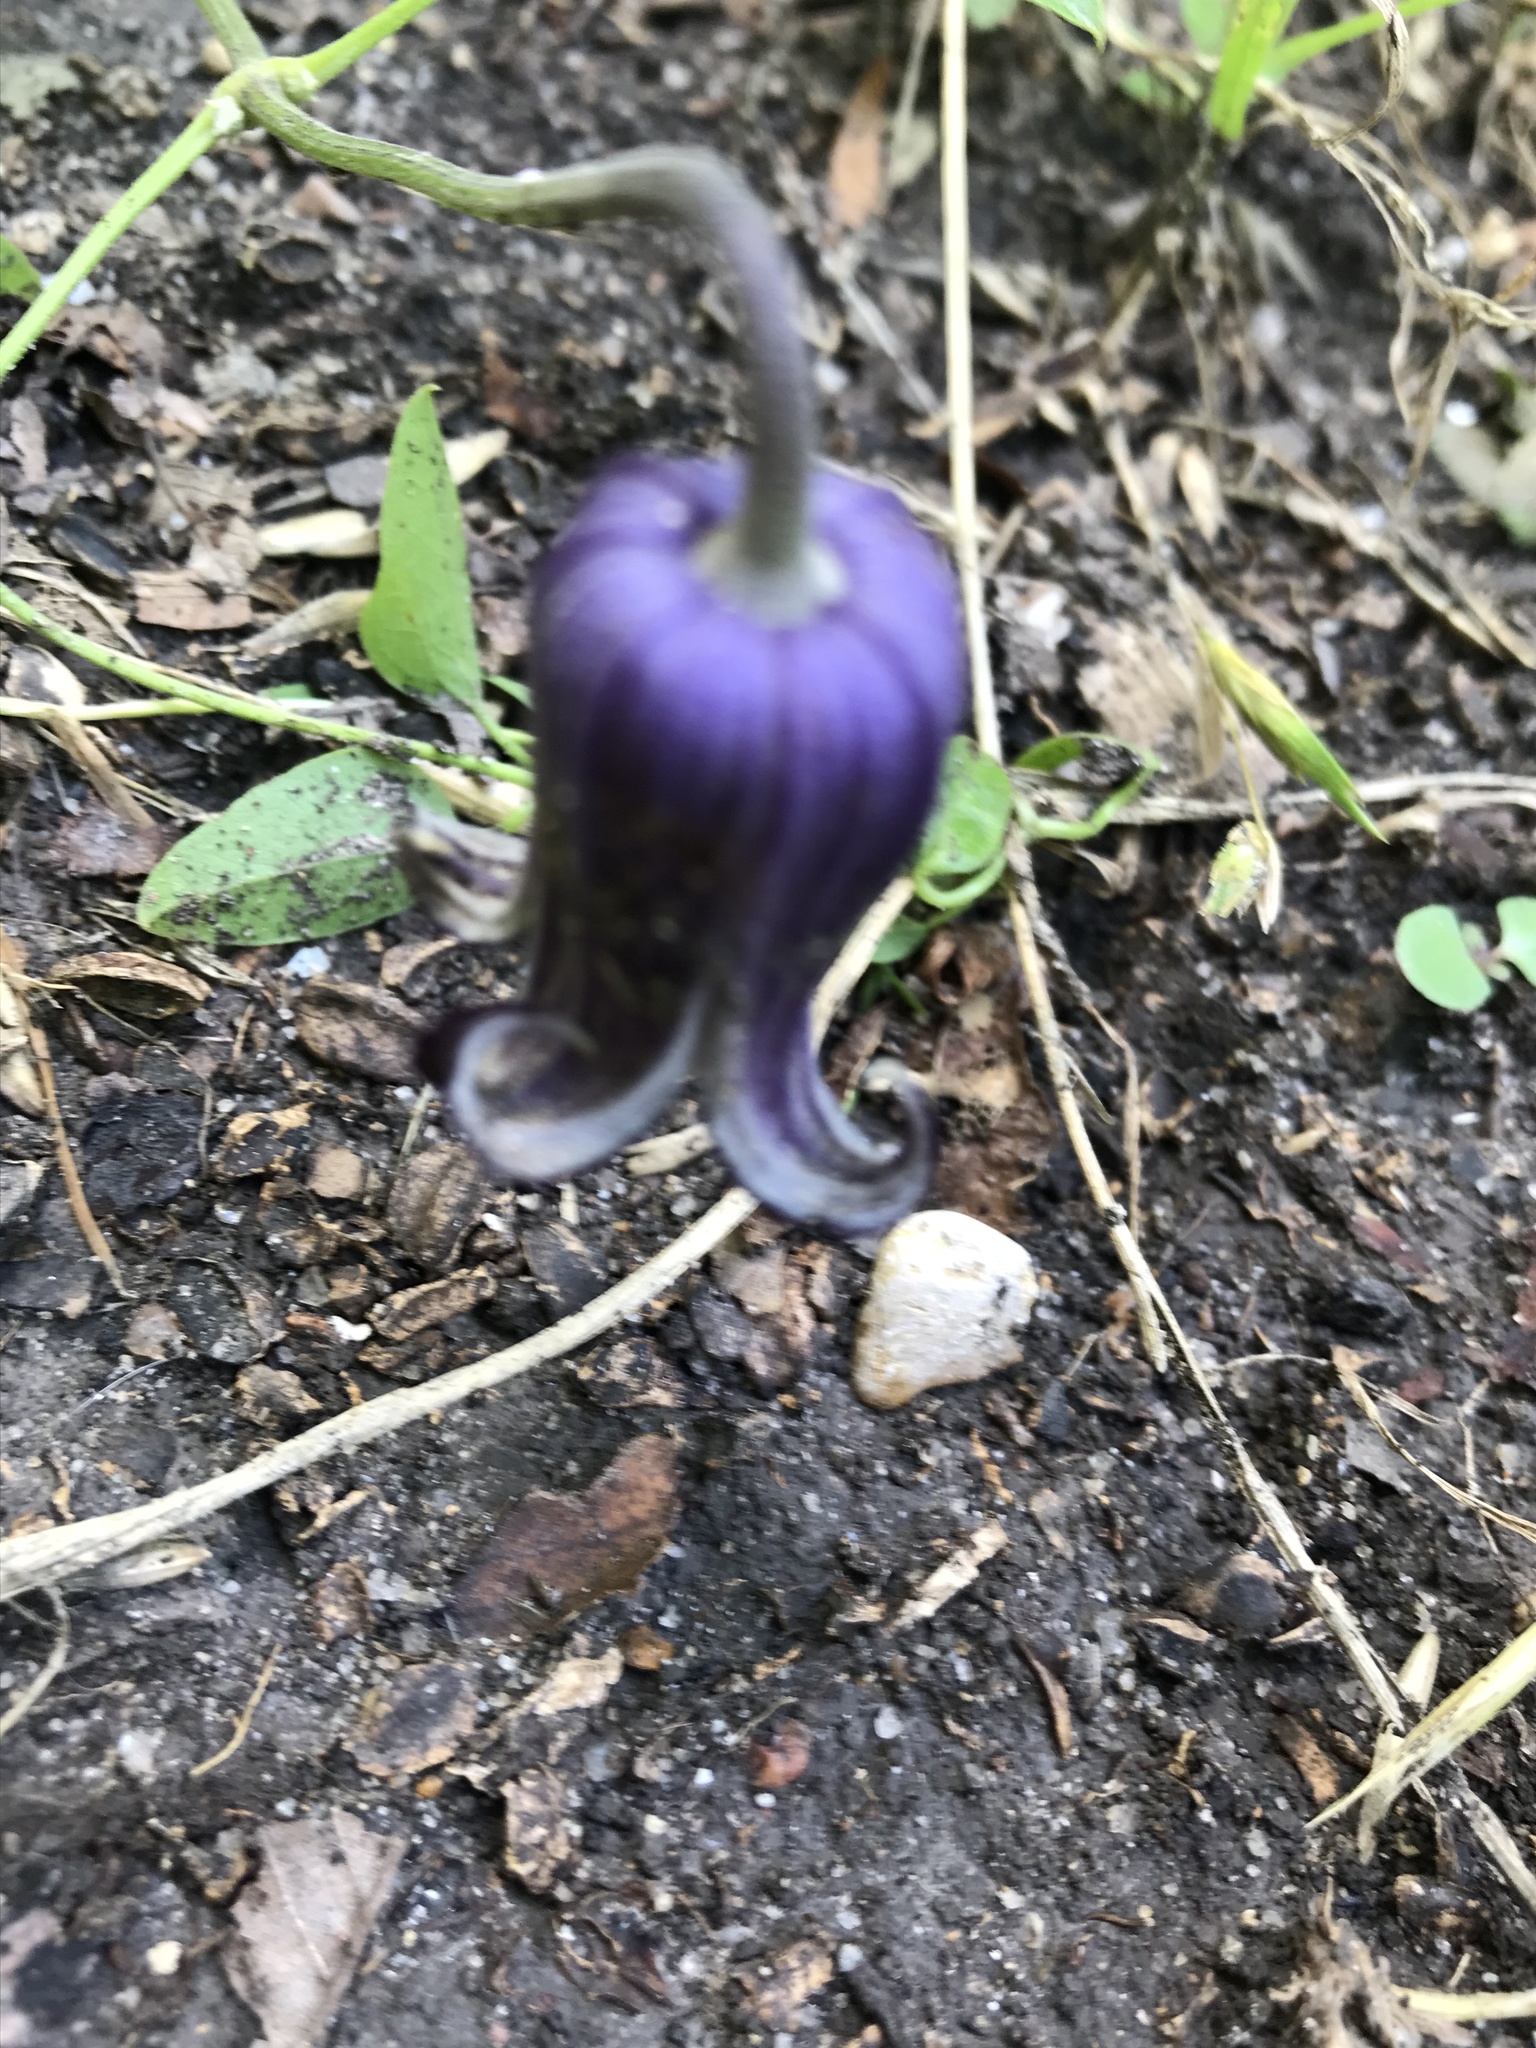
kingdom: Plantae
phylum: Tracheophyta
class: Magnoliopsida
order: Ranunculales
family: Ranunculaceae
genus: Clematis
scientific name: Clematis pitcheri
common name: Bellflower clematis
